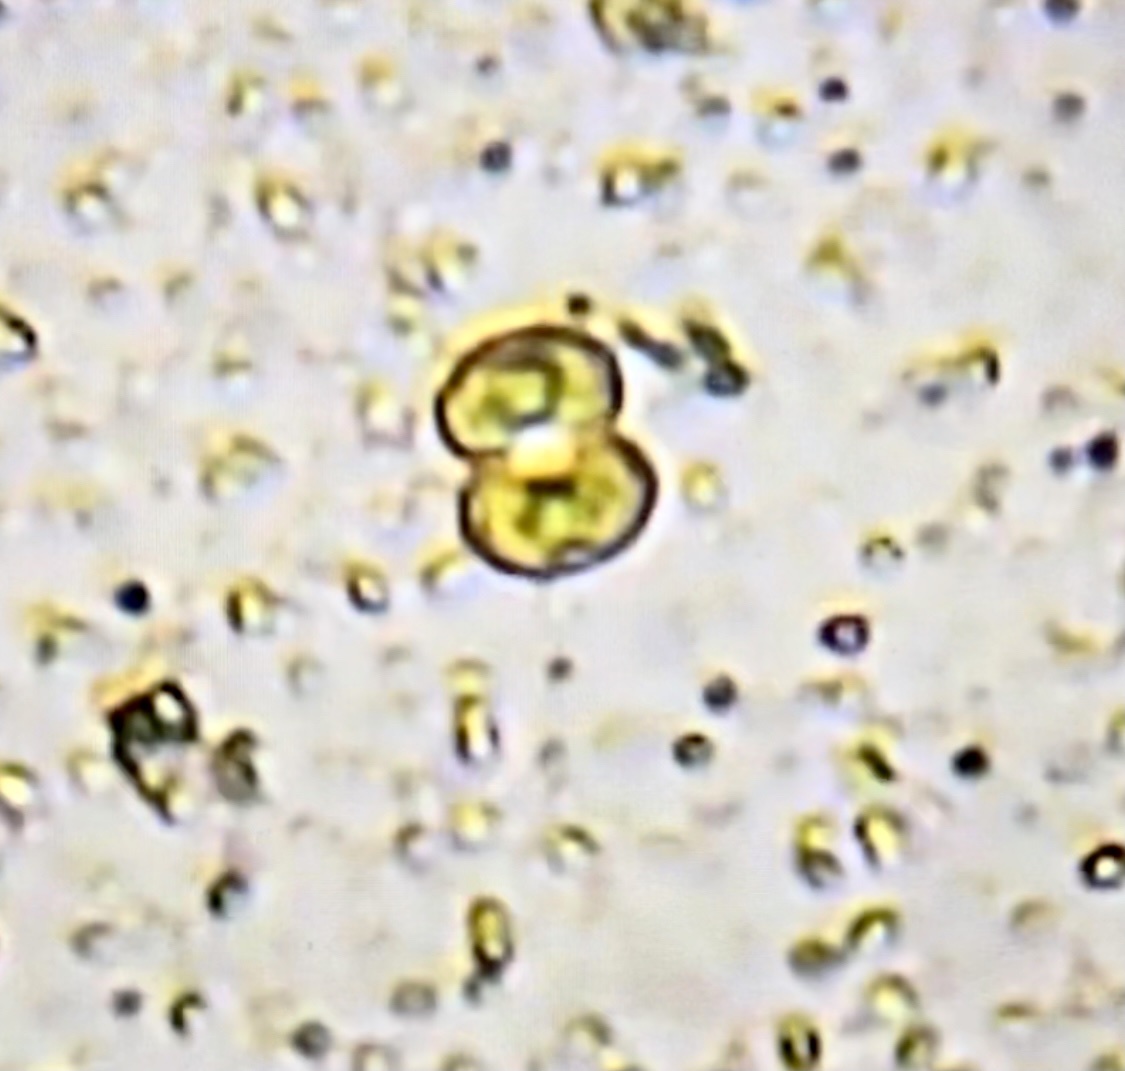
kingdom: Plantae
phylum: Charophyta
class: Zygnematophyceae
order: Zygnematales
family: Desmidiaceae
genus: Cosmarium
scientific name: Cosmarium
